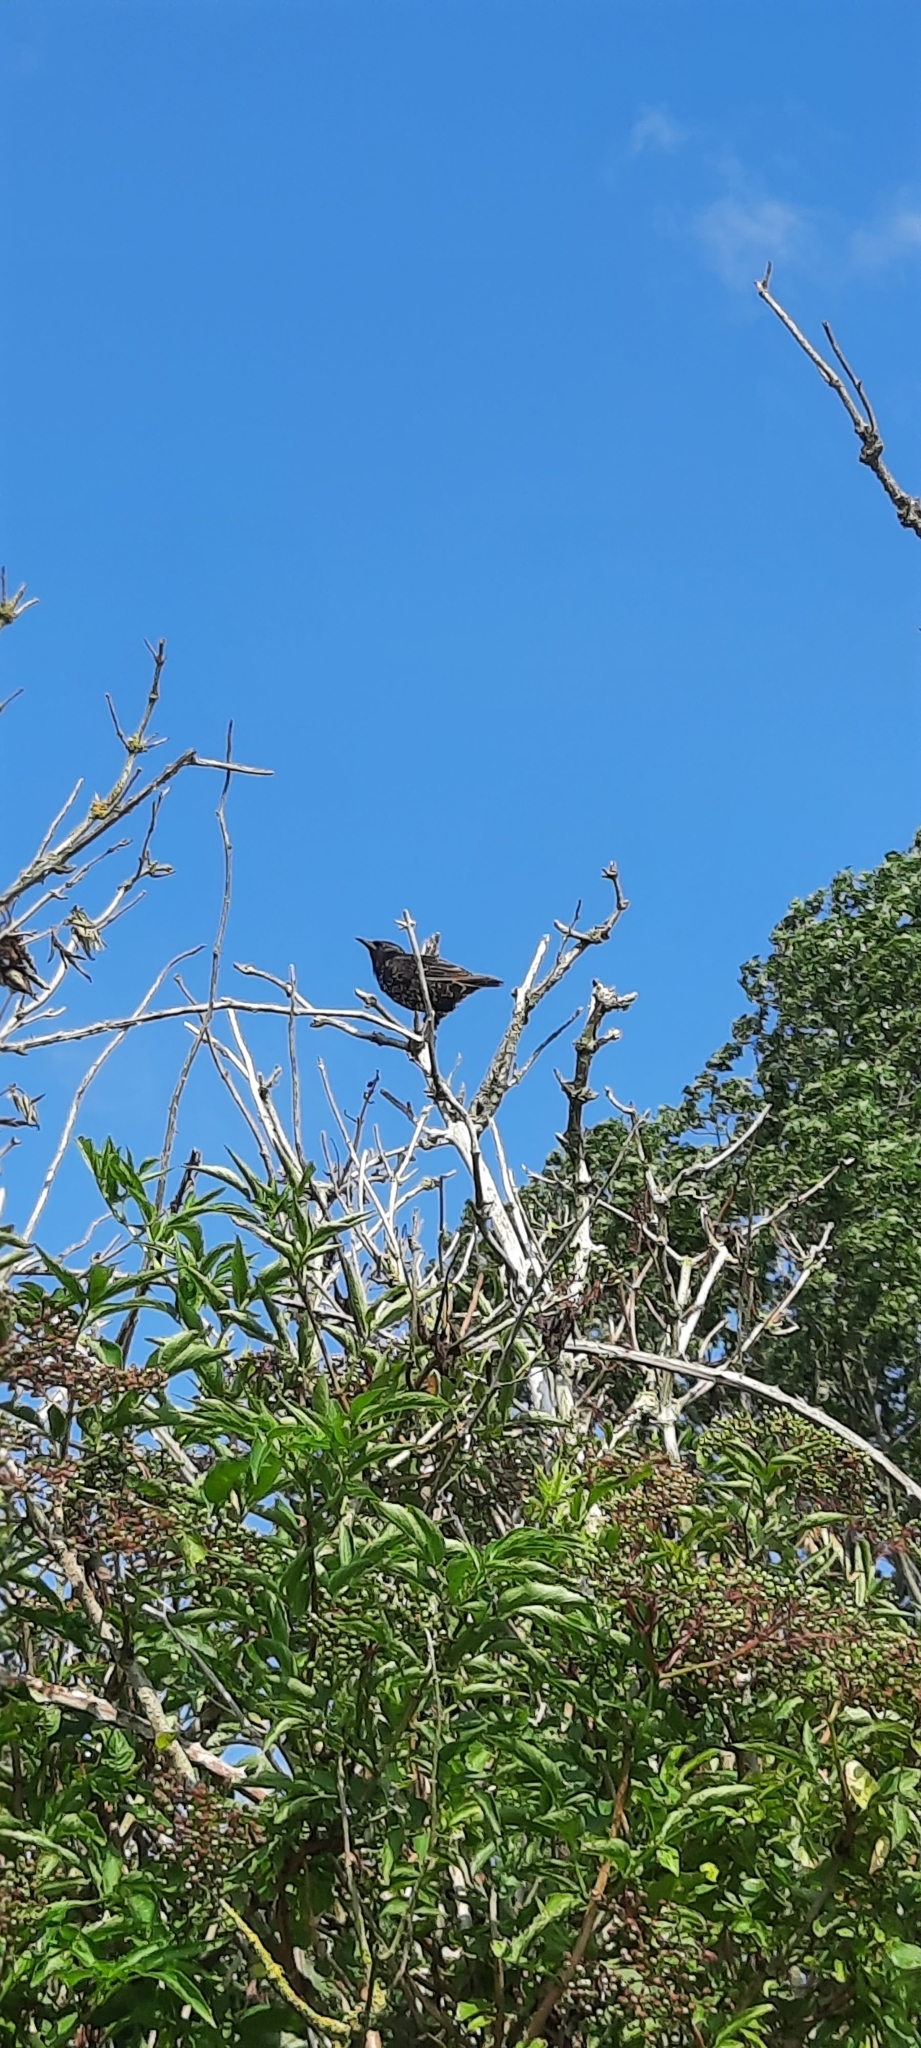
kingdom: Animalia
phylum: Chordata
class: Aves
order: Passeriformes
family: Sturnidae
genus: Sturnus
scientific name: Sturnus vulgaris
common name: Common starling
